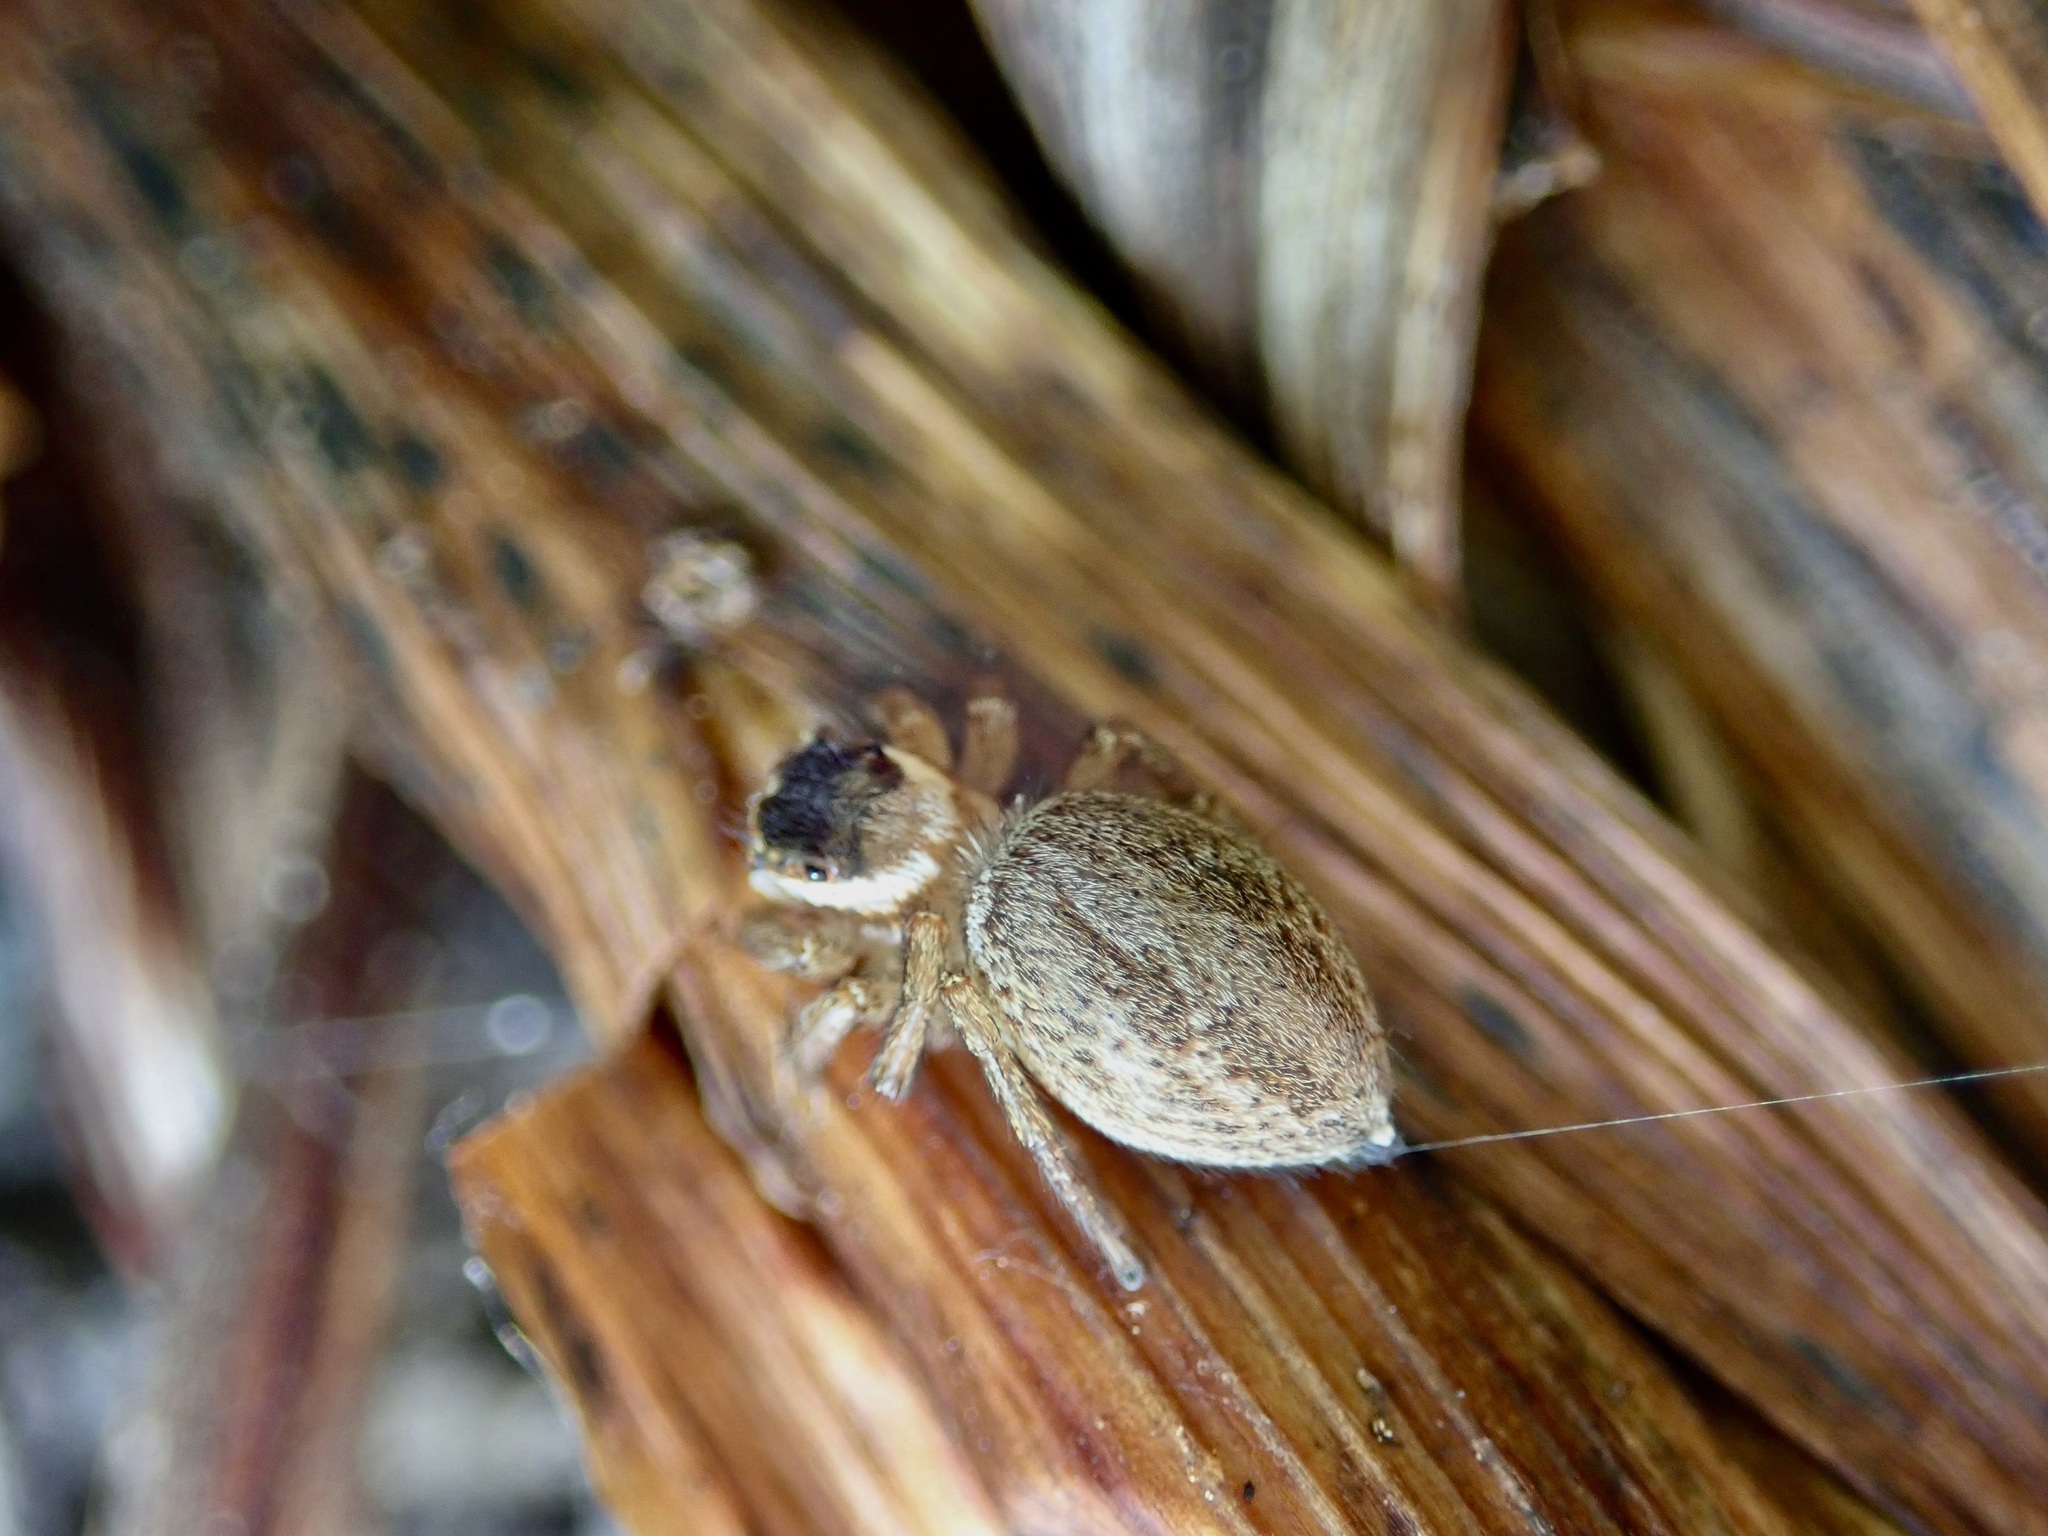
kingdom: Animalia
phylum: Arthropoda
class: Arachnida
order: Araneae
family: Salticidae
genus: Maratus
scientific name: Maratus griseus
